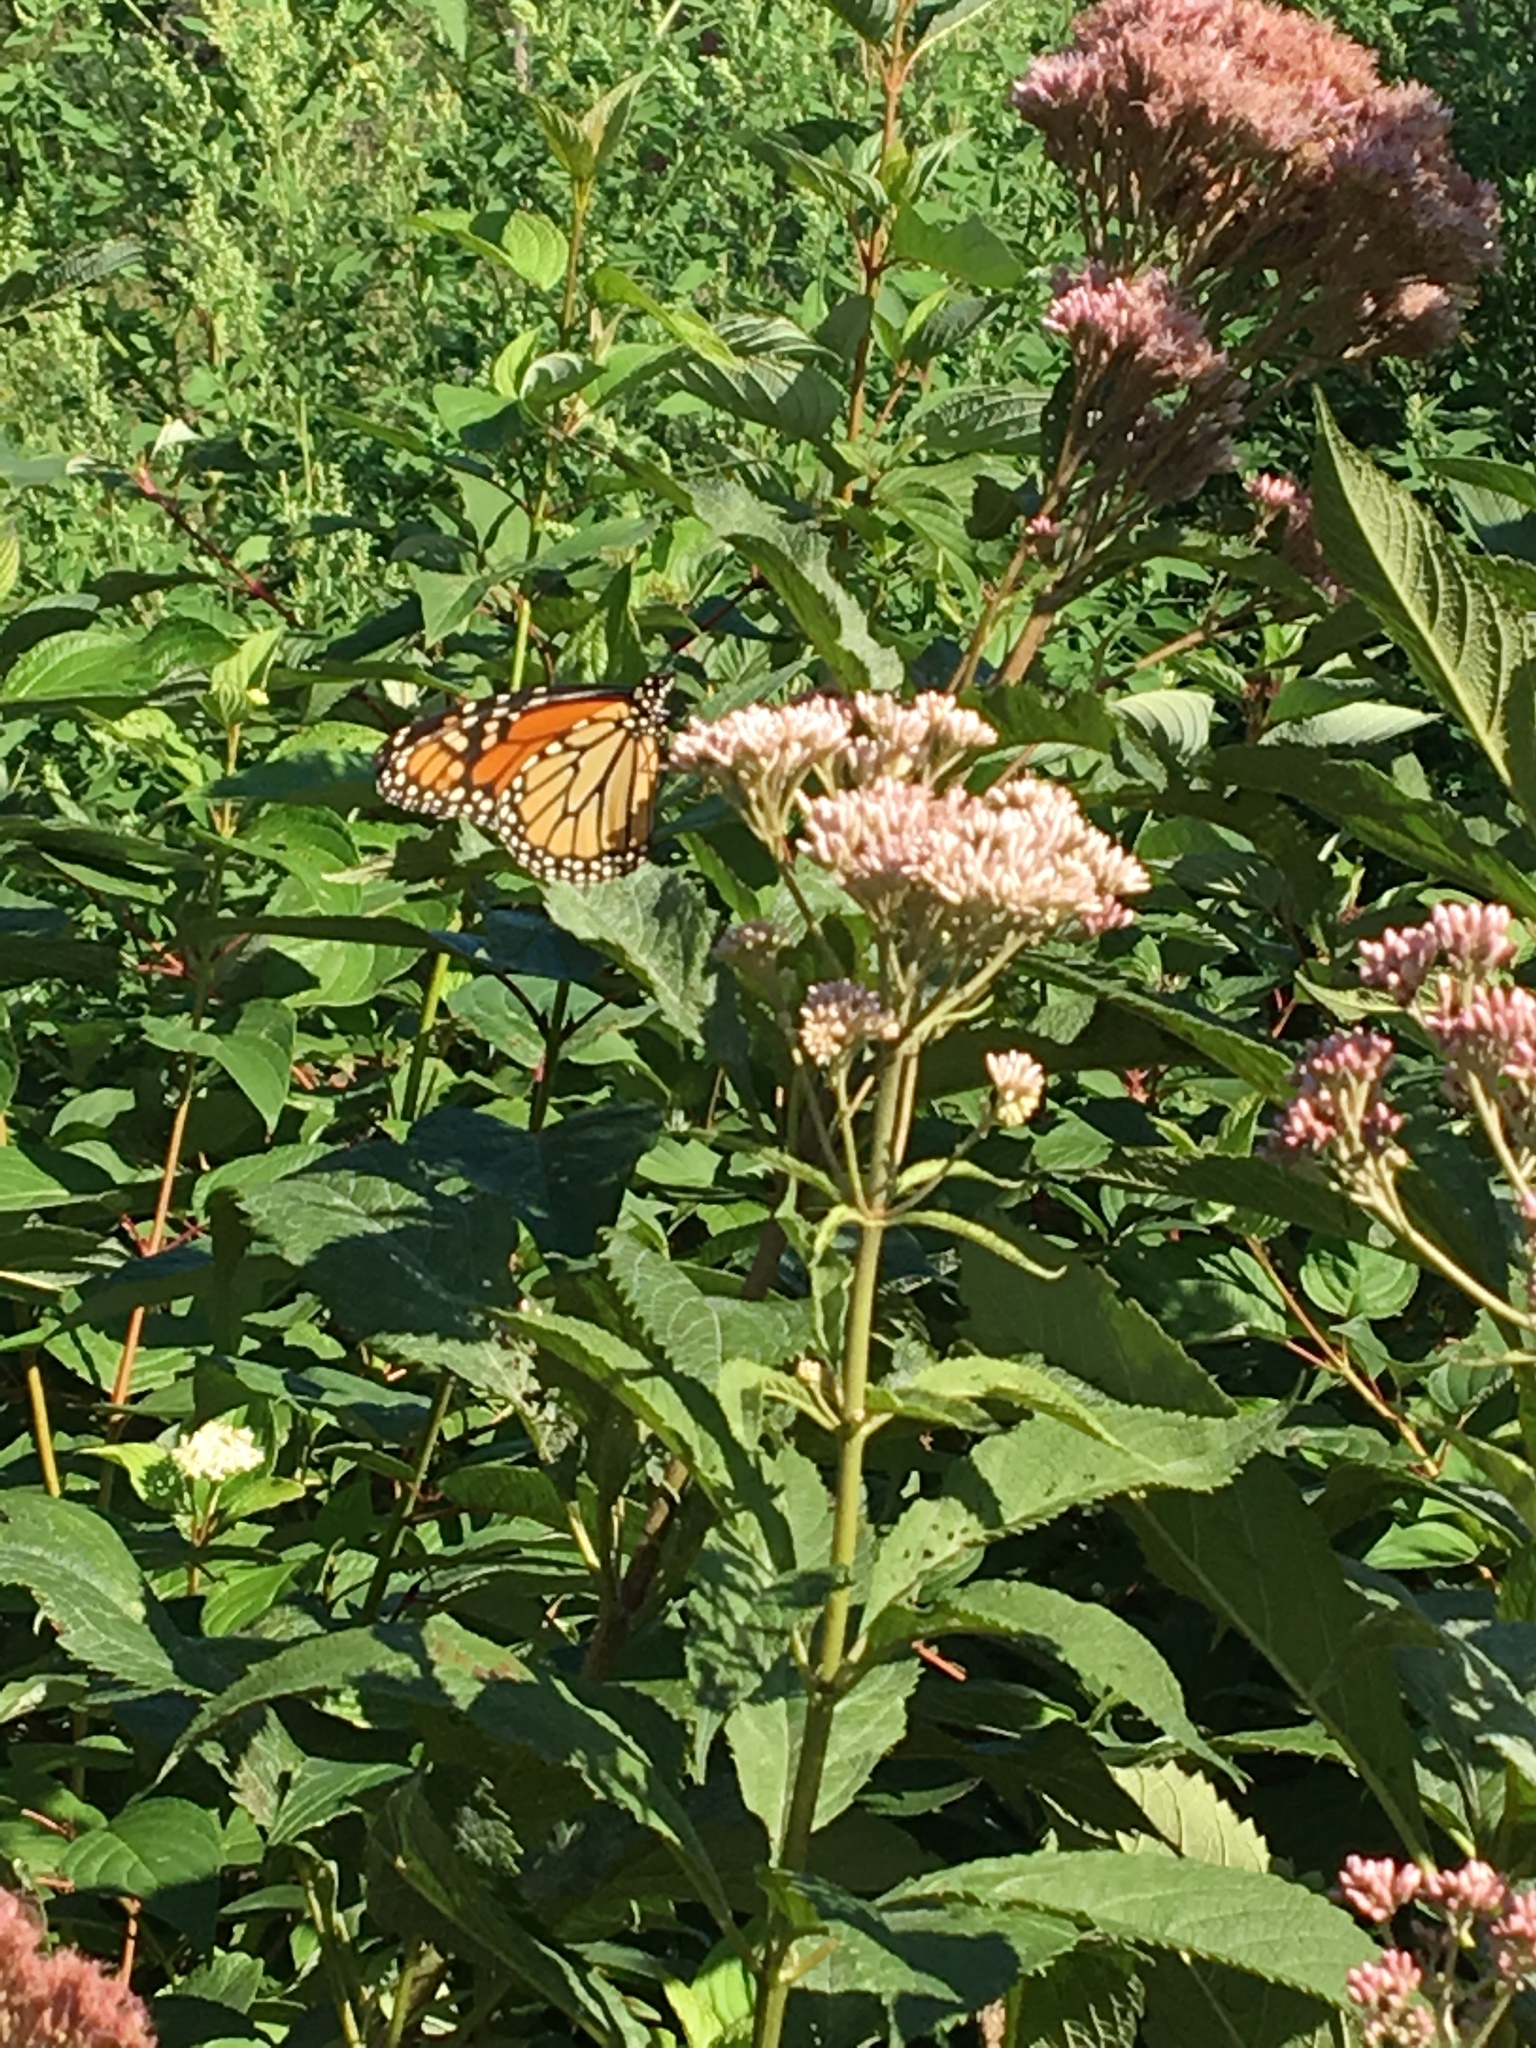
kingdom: Animalia
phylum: Arthropoda
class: Insecta
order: Lepidoptera
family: Nymphalidae
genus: Danaus
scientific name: Danaus plexippus
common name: Monarch
